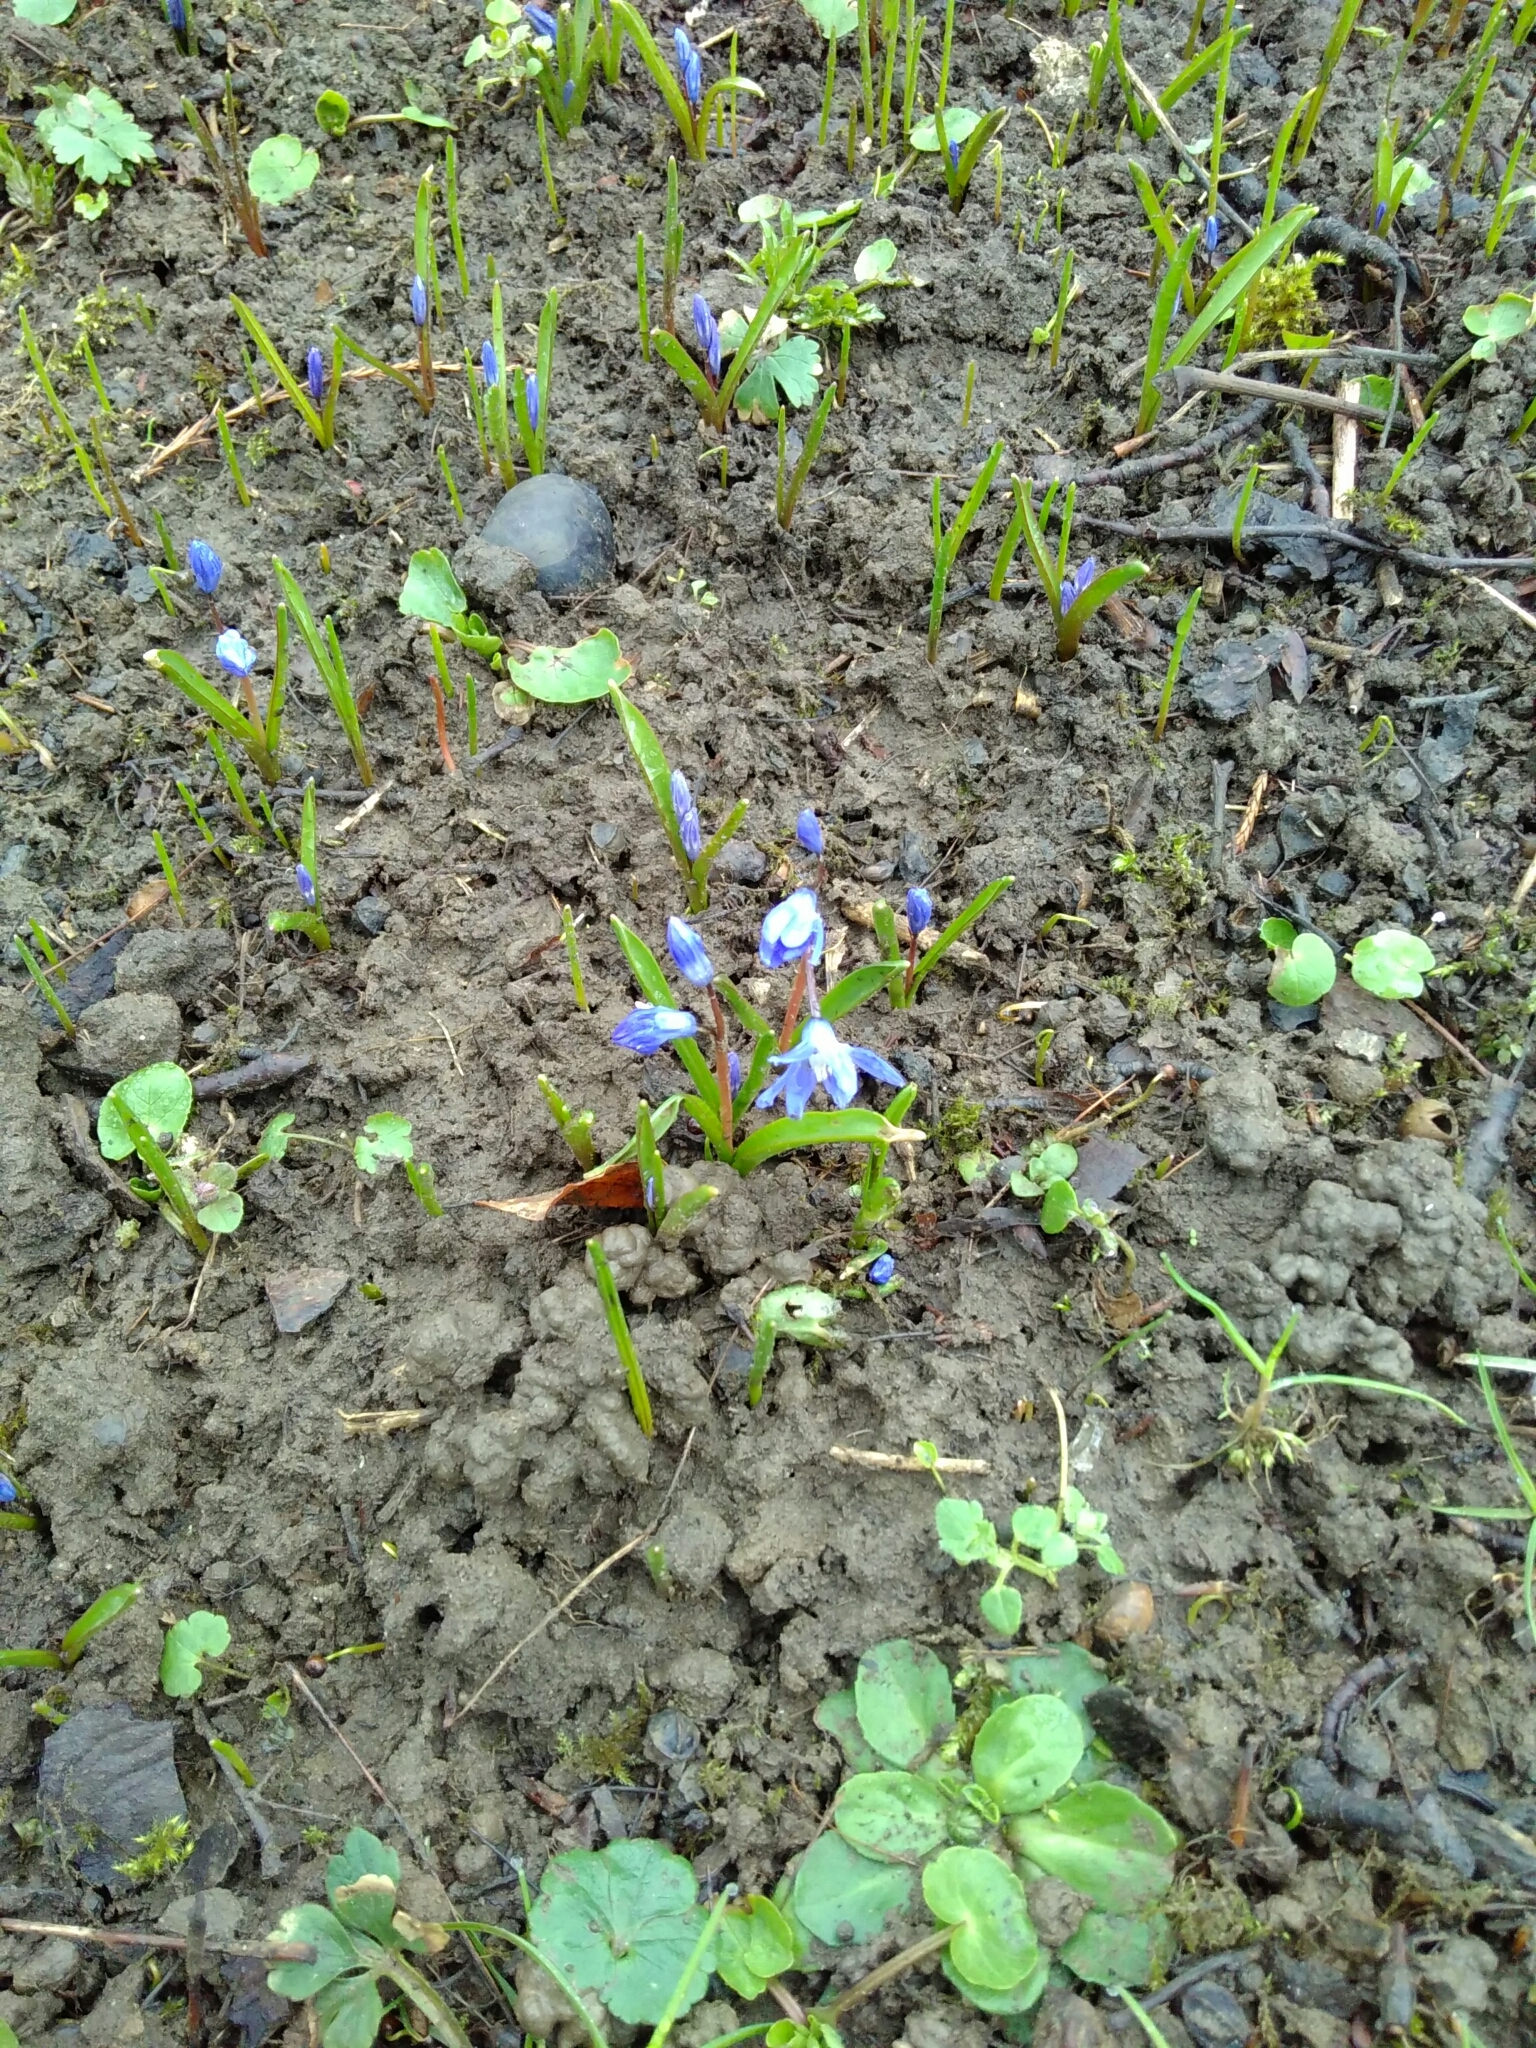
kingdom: Plantae
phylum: Tracheophyta
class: Liliopsida
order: Asparagales
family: Asparagaceae
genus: Scilla
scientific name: Scilla bifolia
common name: Alpine squill
